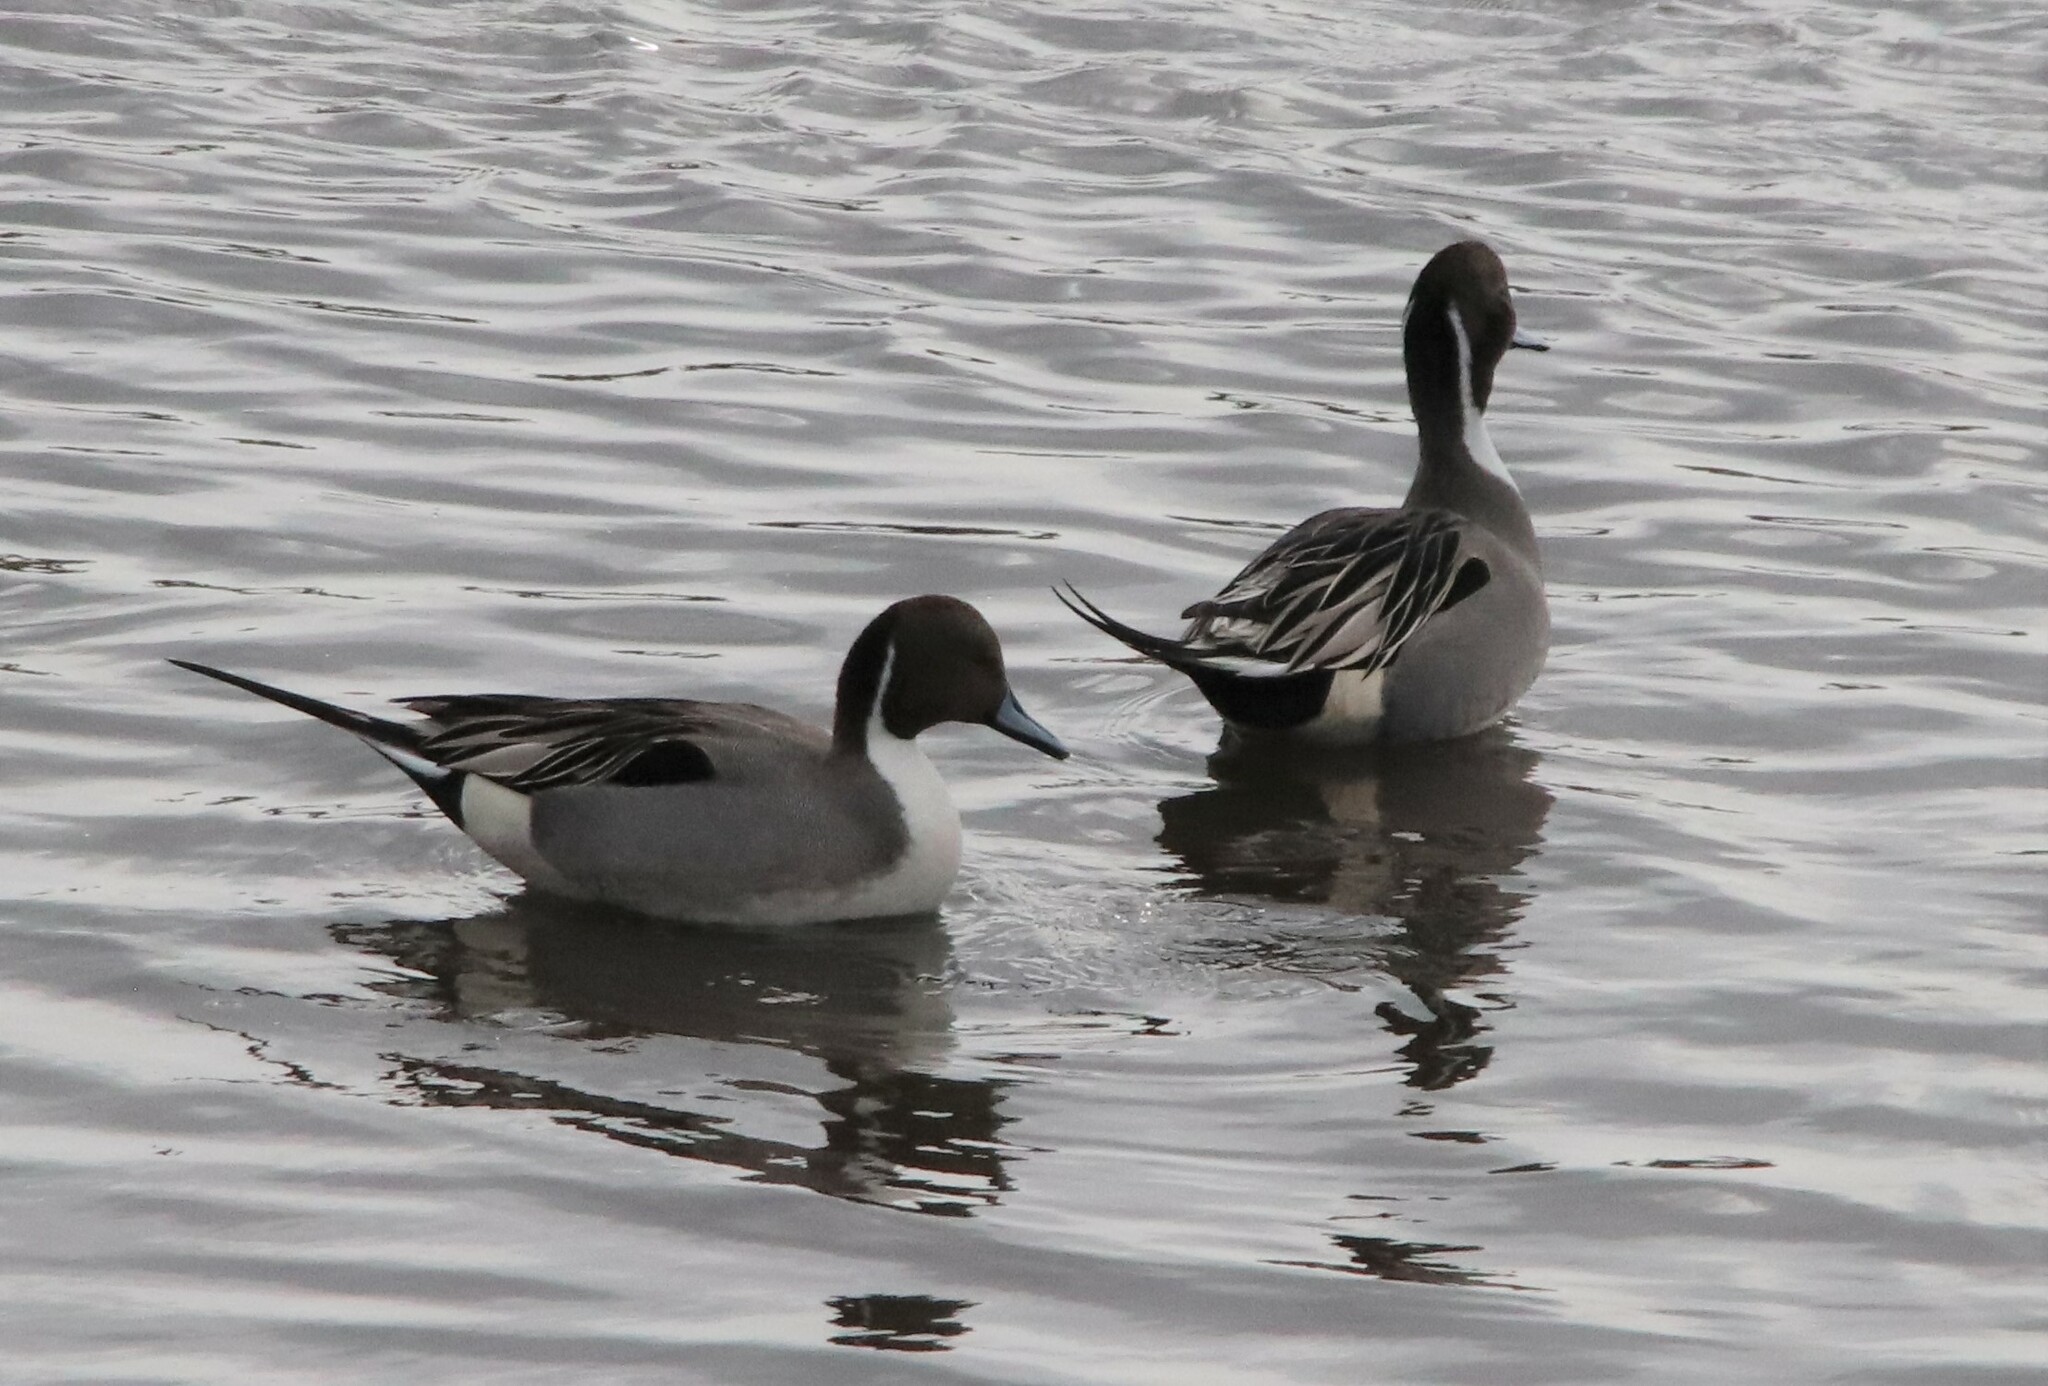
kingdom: Animalia
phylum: Chordata
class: Aves
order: Anseriformes
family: Anatidae
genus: Anas
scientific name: Anas acuta
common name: Northern pintail
